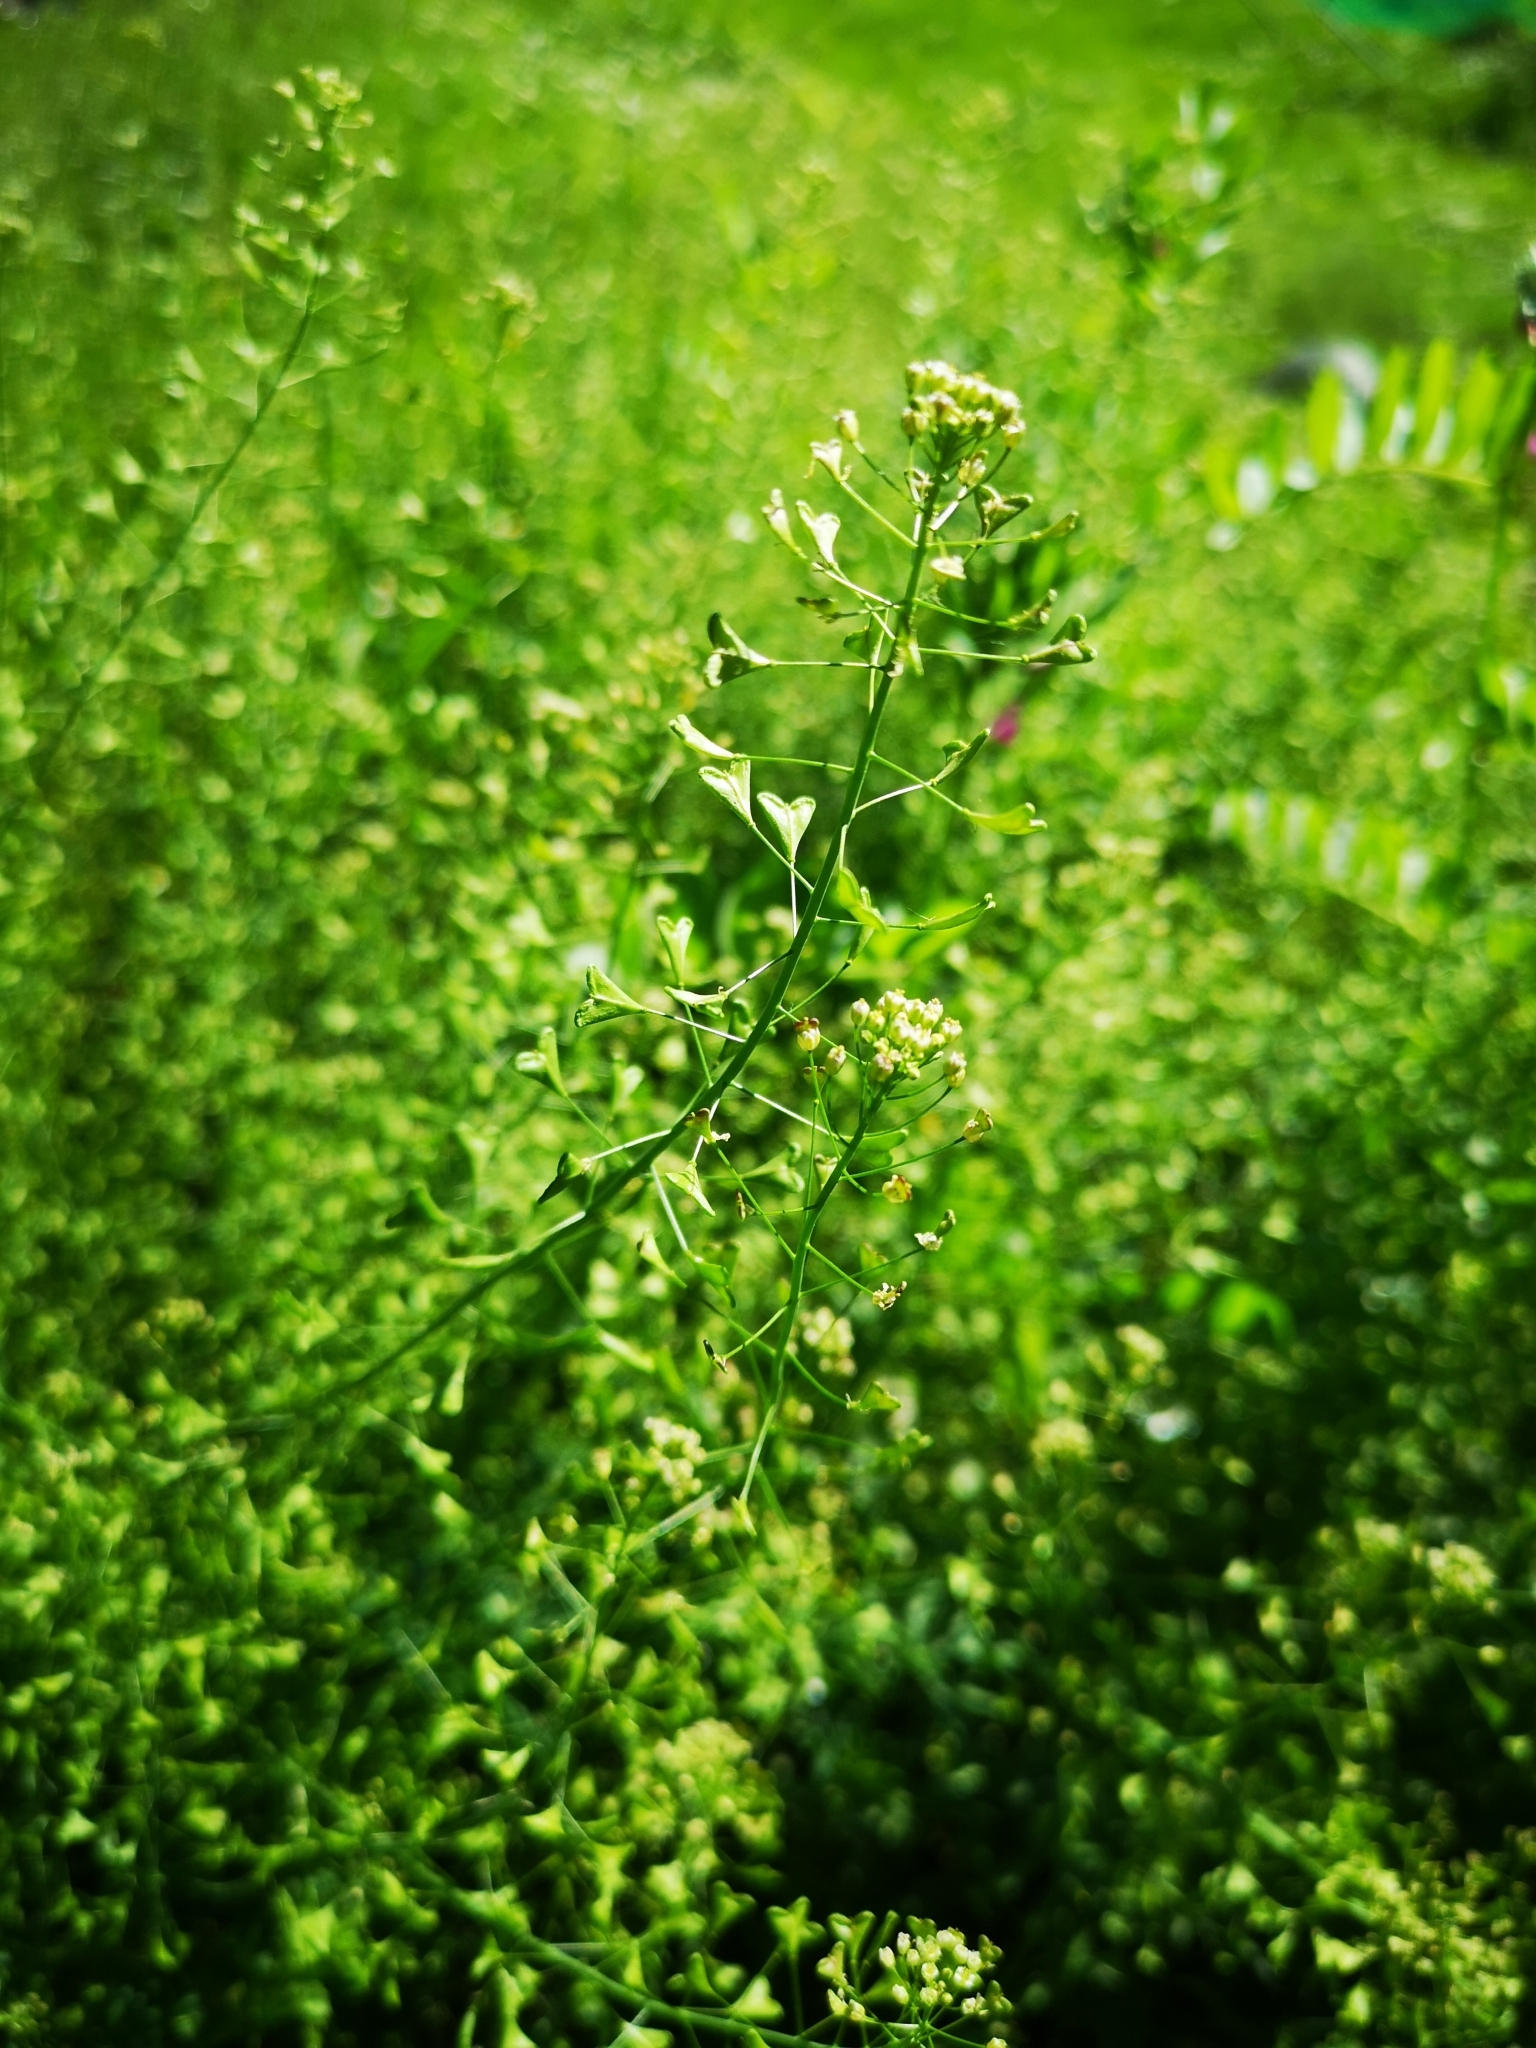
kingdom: Plantae
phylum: Tracheophyta
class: Magnoliopsida
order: Brassicales
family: Brassicaceae
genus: Capsella
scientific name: Capsella bursa-pastoris
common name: Shepherd's purse
